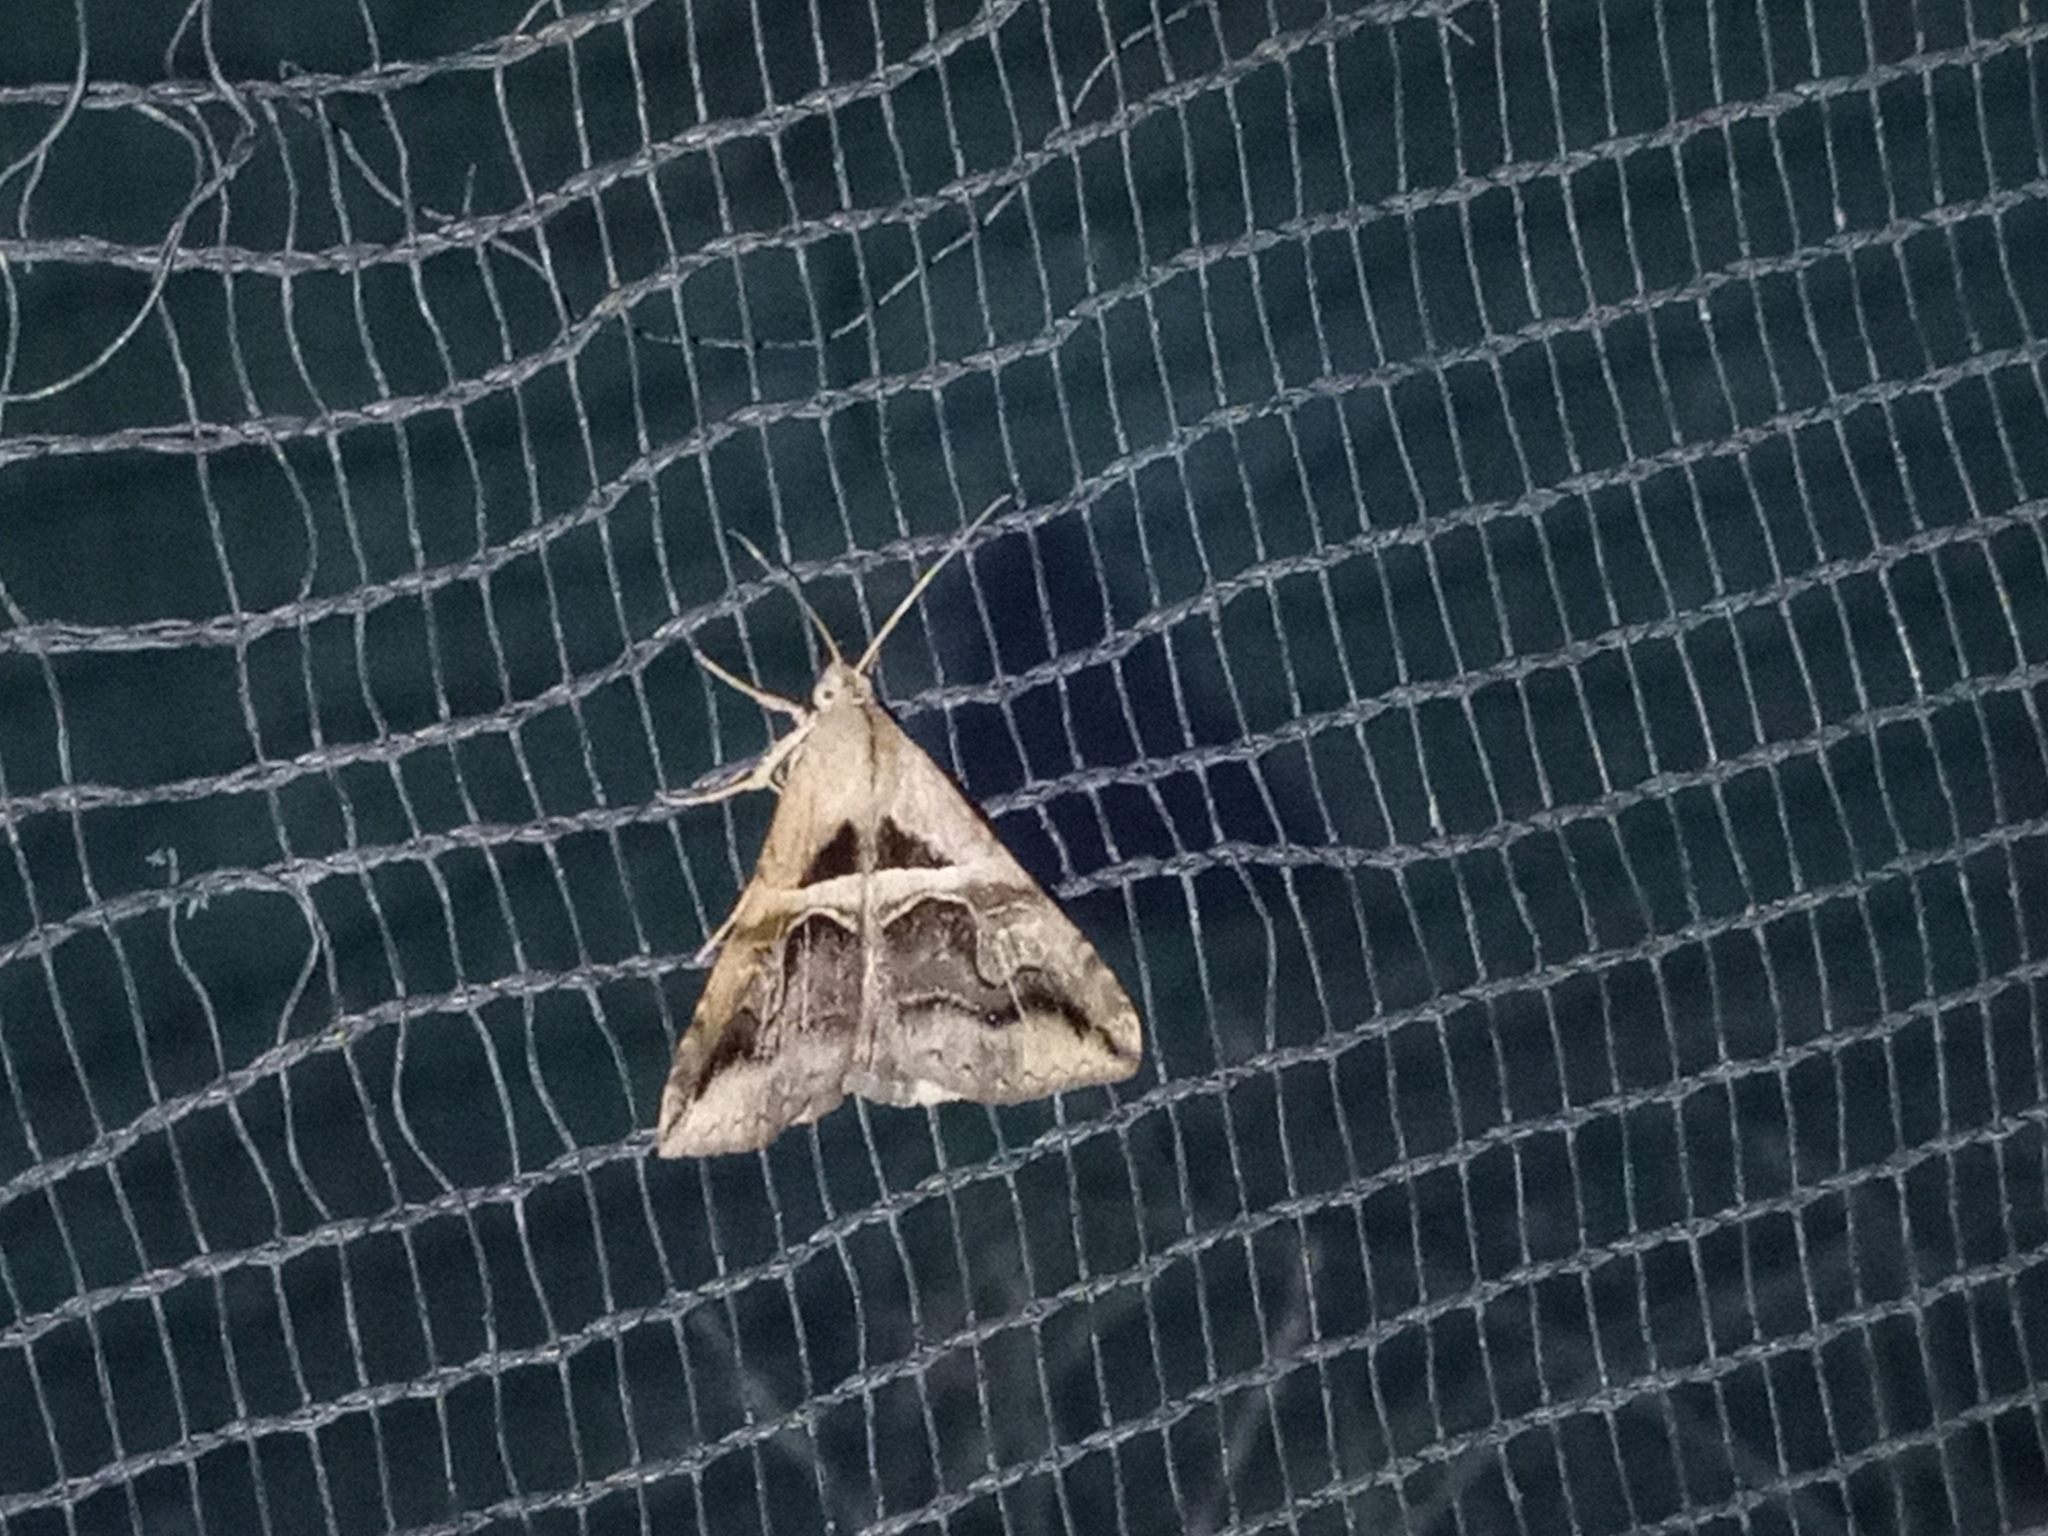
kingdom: Animalia
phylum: Arthropoda
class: Insecta
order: Lepidoptera
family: Erebidae
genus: Melipotis
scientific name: Melipotis cellaris
